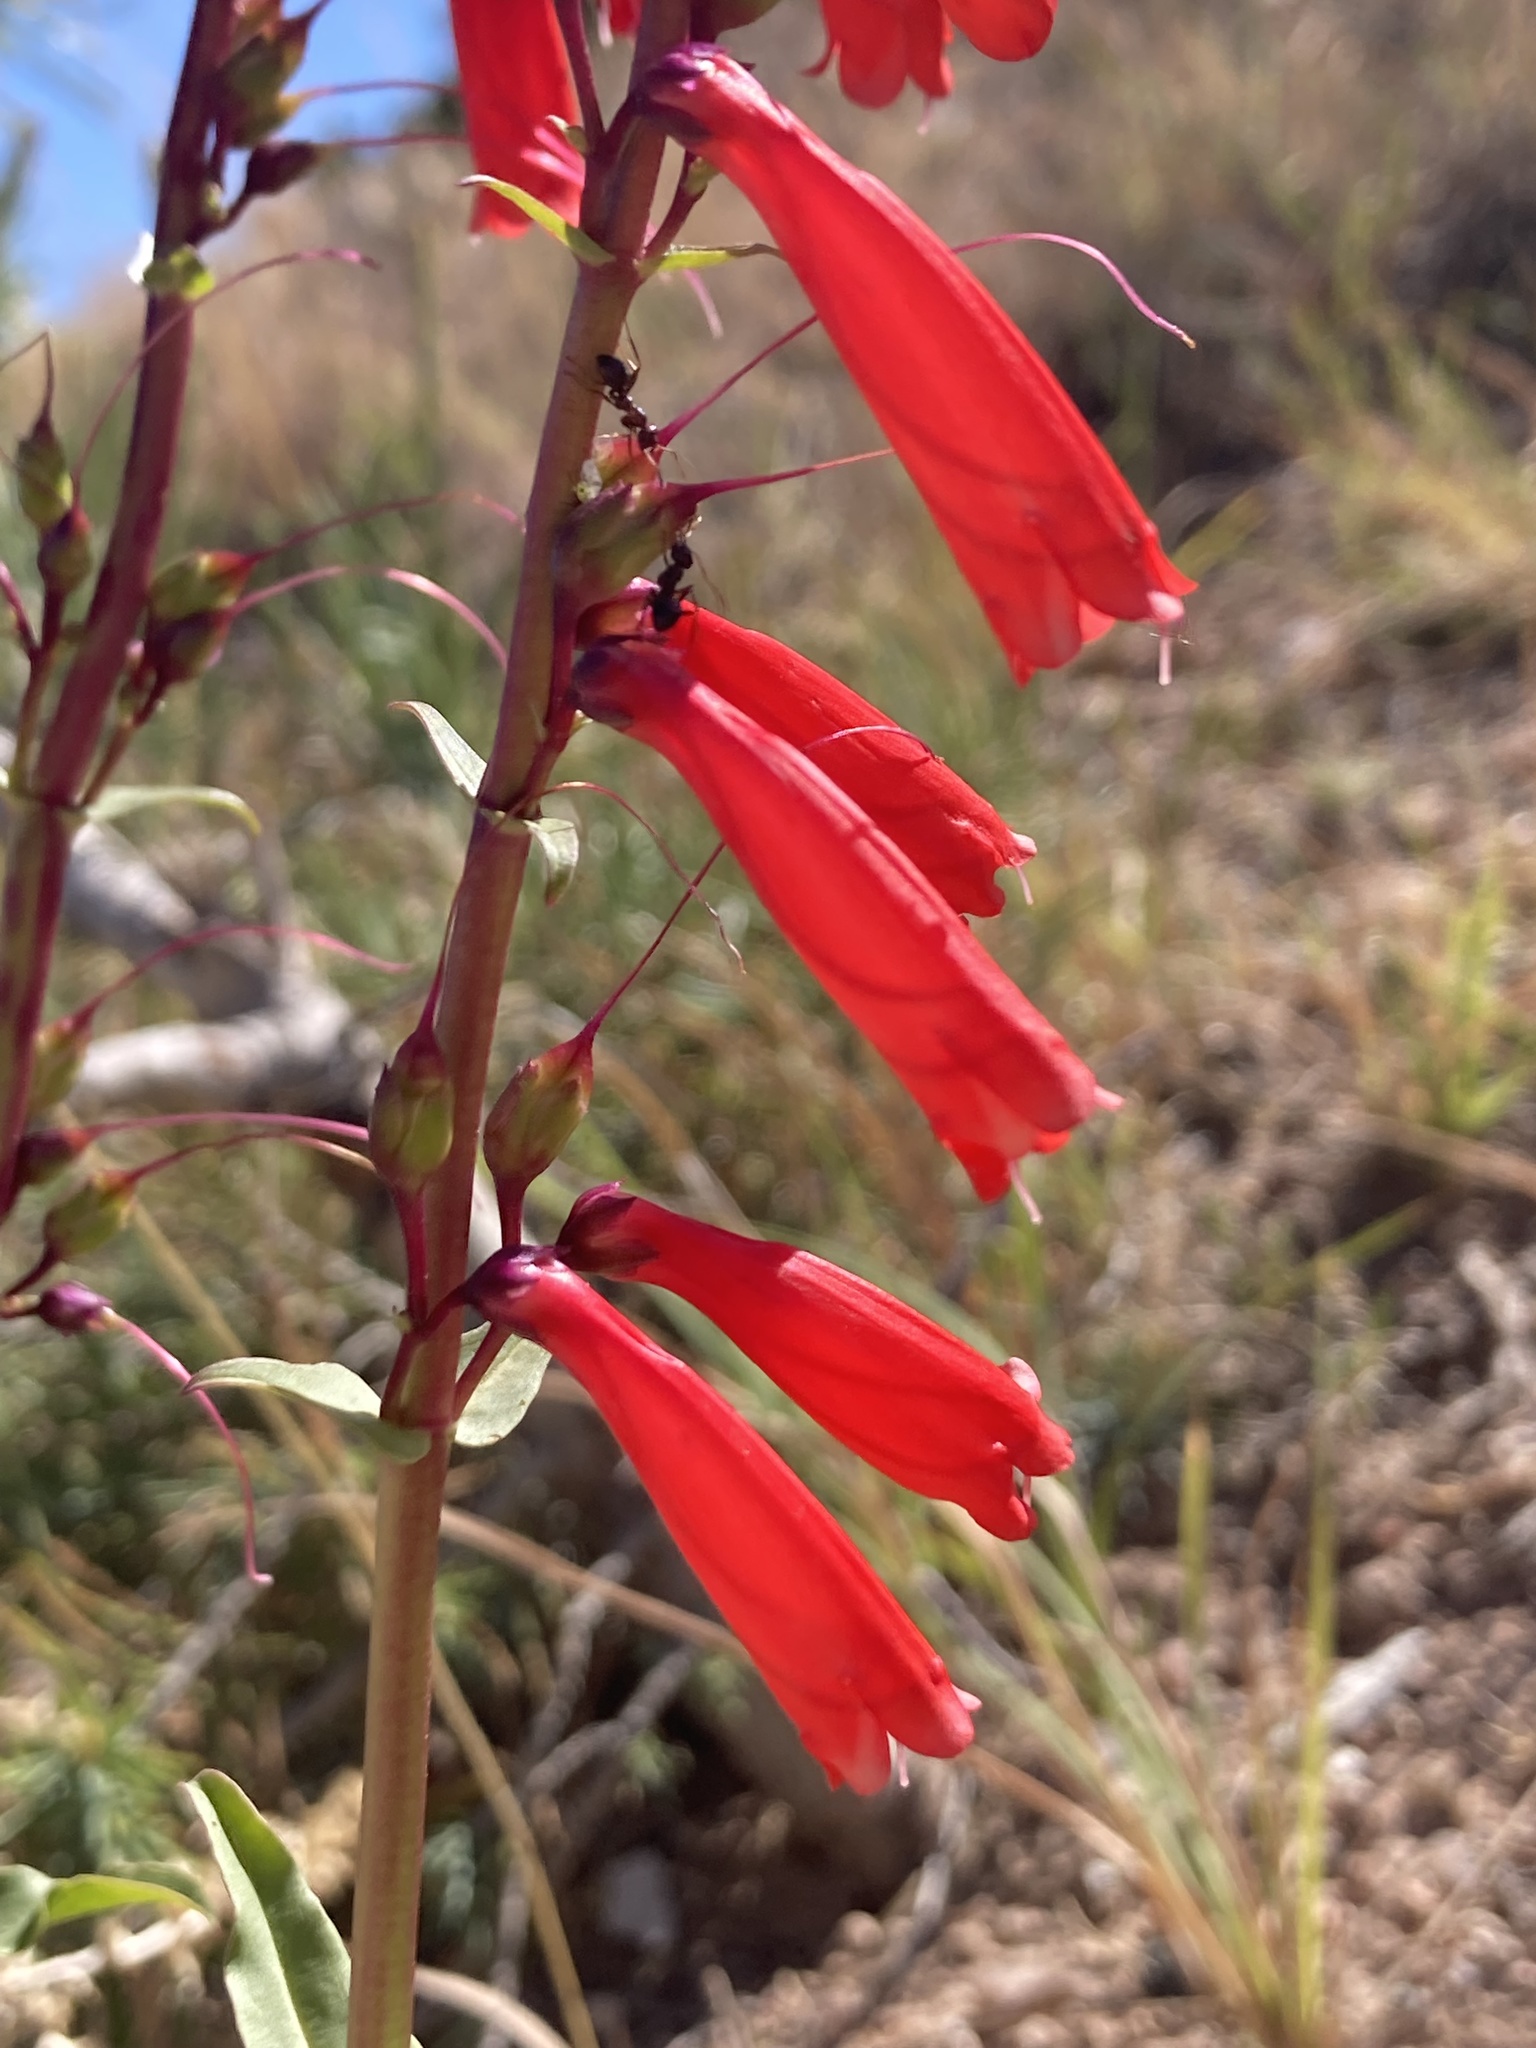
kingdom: Plantae
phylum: Tracheophyta
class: Magnoliopsida
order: Lamiales
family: Plantaginaceae
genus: Penstemon
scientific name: Penstemon eatonii
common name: Eaton's penstemon
